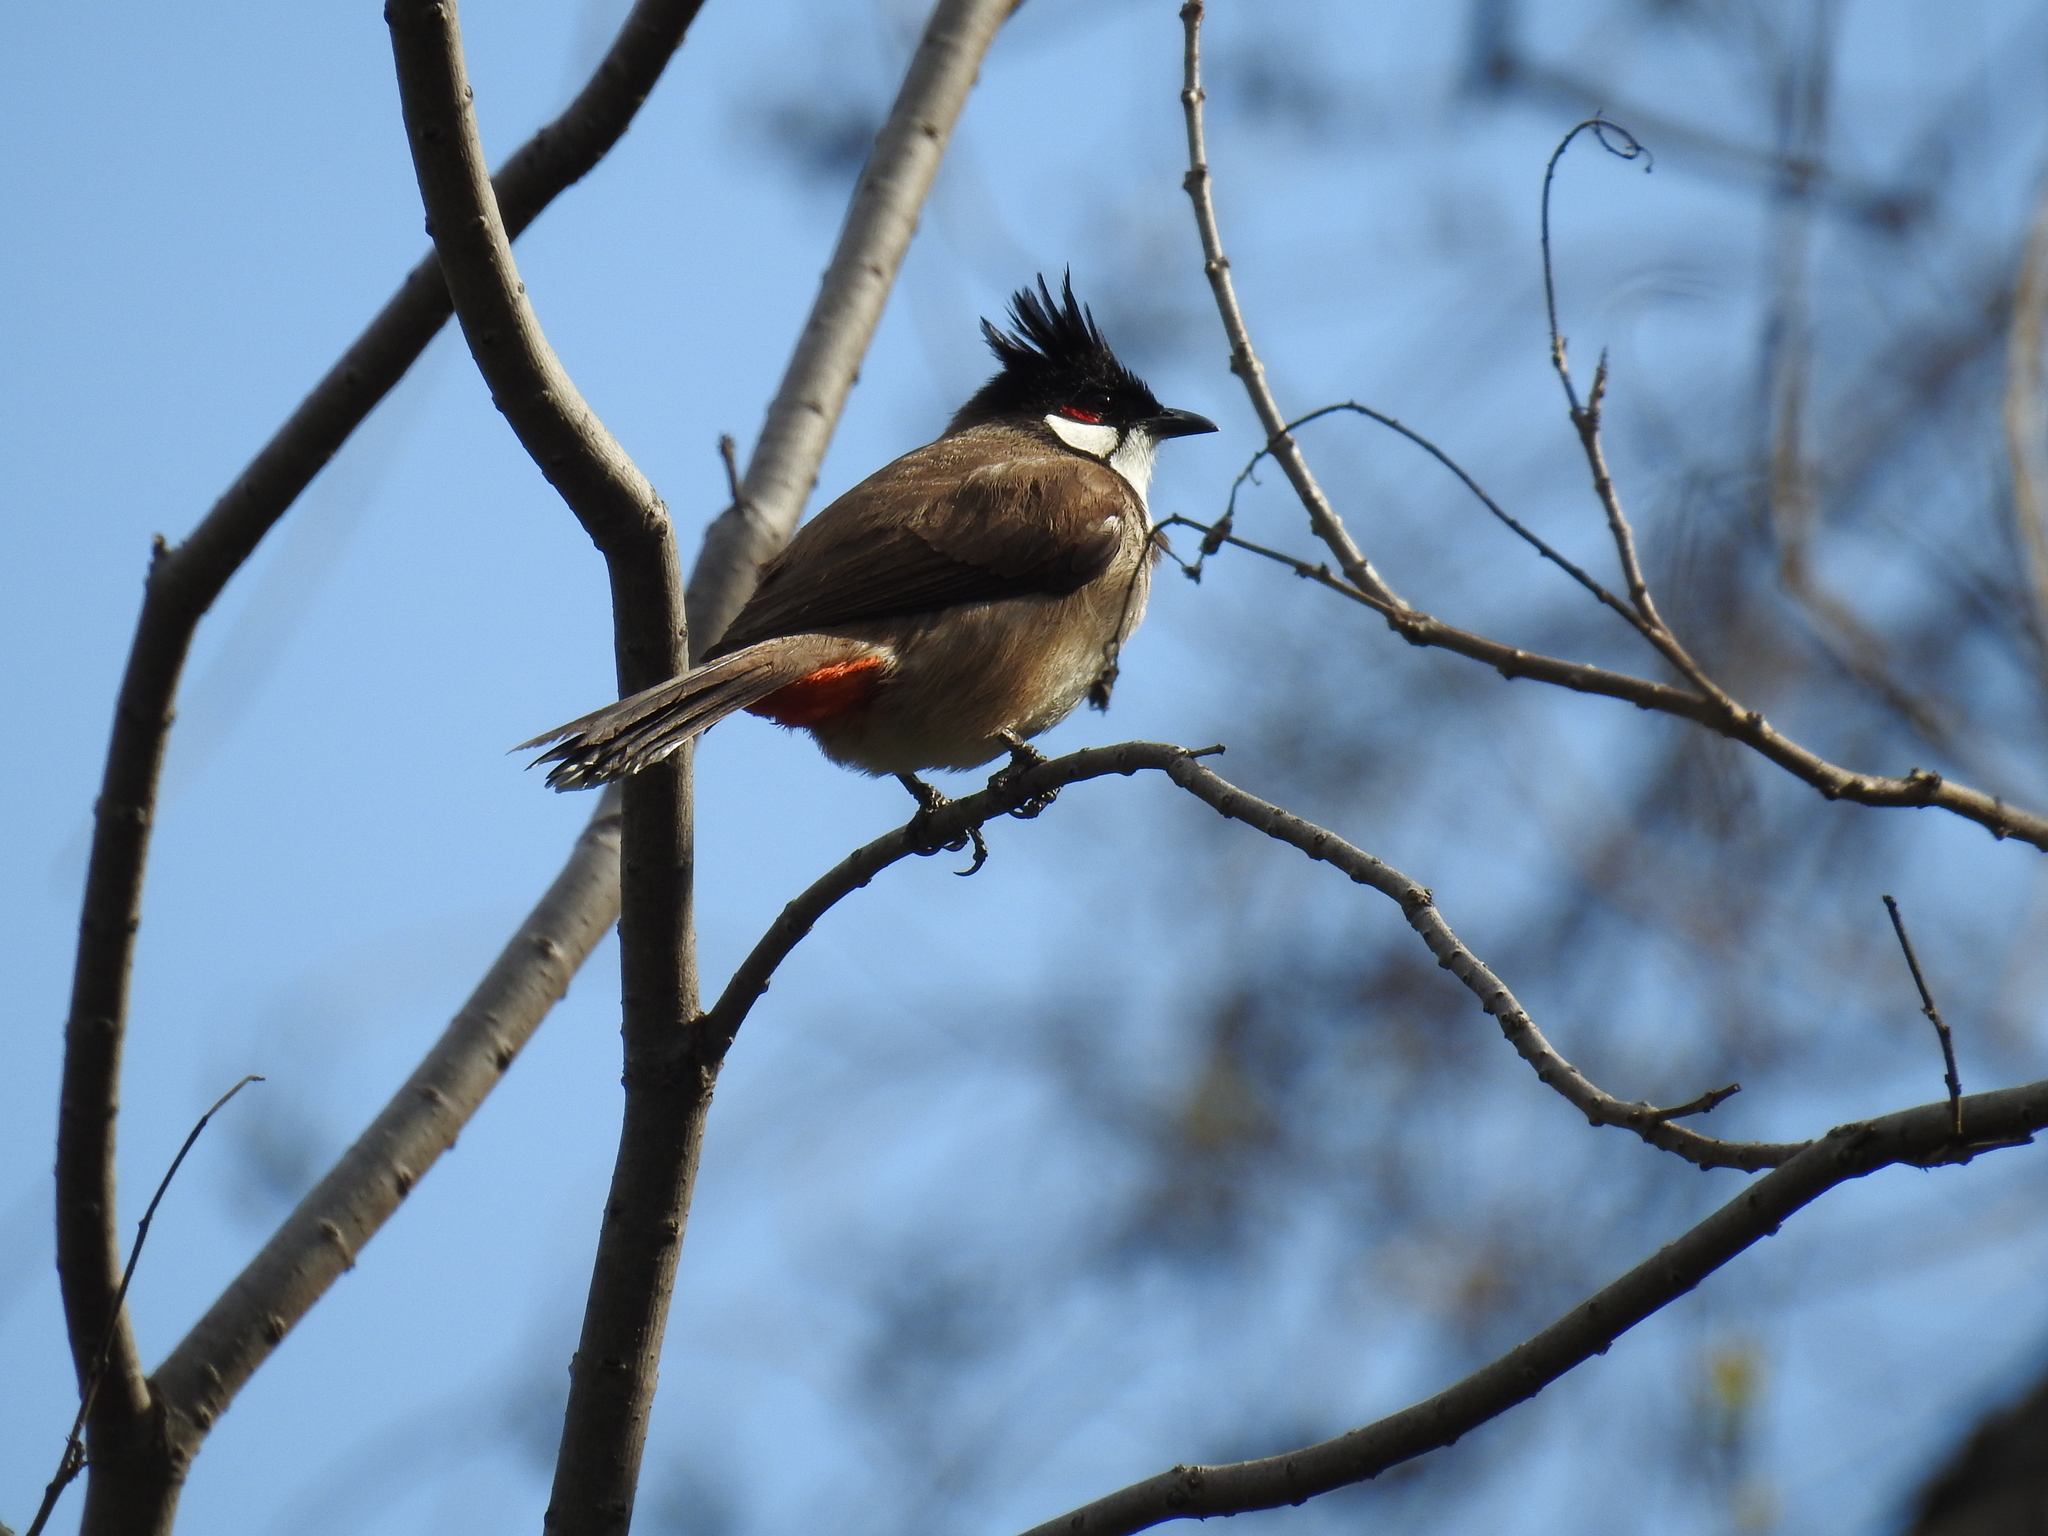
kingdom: Animalia
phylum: Chordata
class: Aves
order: Passeriformes
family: Pycnonotidae
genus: Pycnonotus
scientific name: Pycnonotus jocosus
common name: Red-whiskered bulbul
